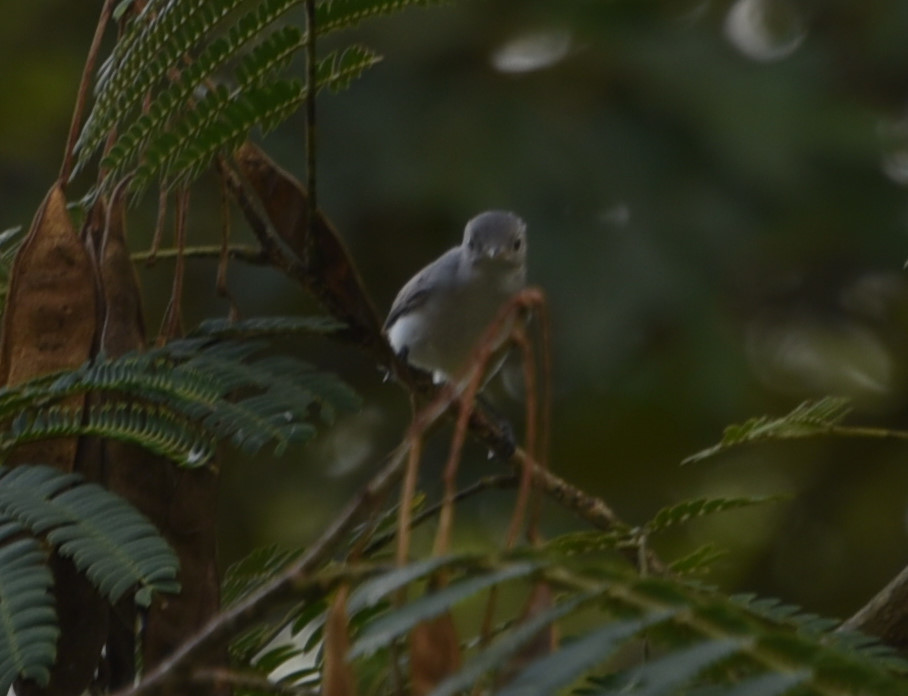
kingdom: Animalia
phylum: Chordata
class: Aves
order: Passeriformes
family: Polioptilidae
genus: Polioptila
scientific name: Polioptila caerulea
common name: Blue-gray gnatcatcher
